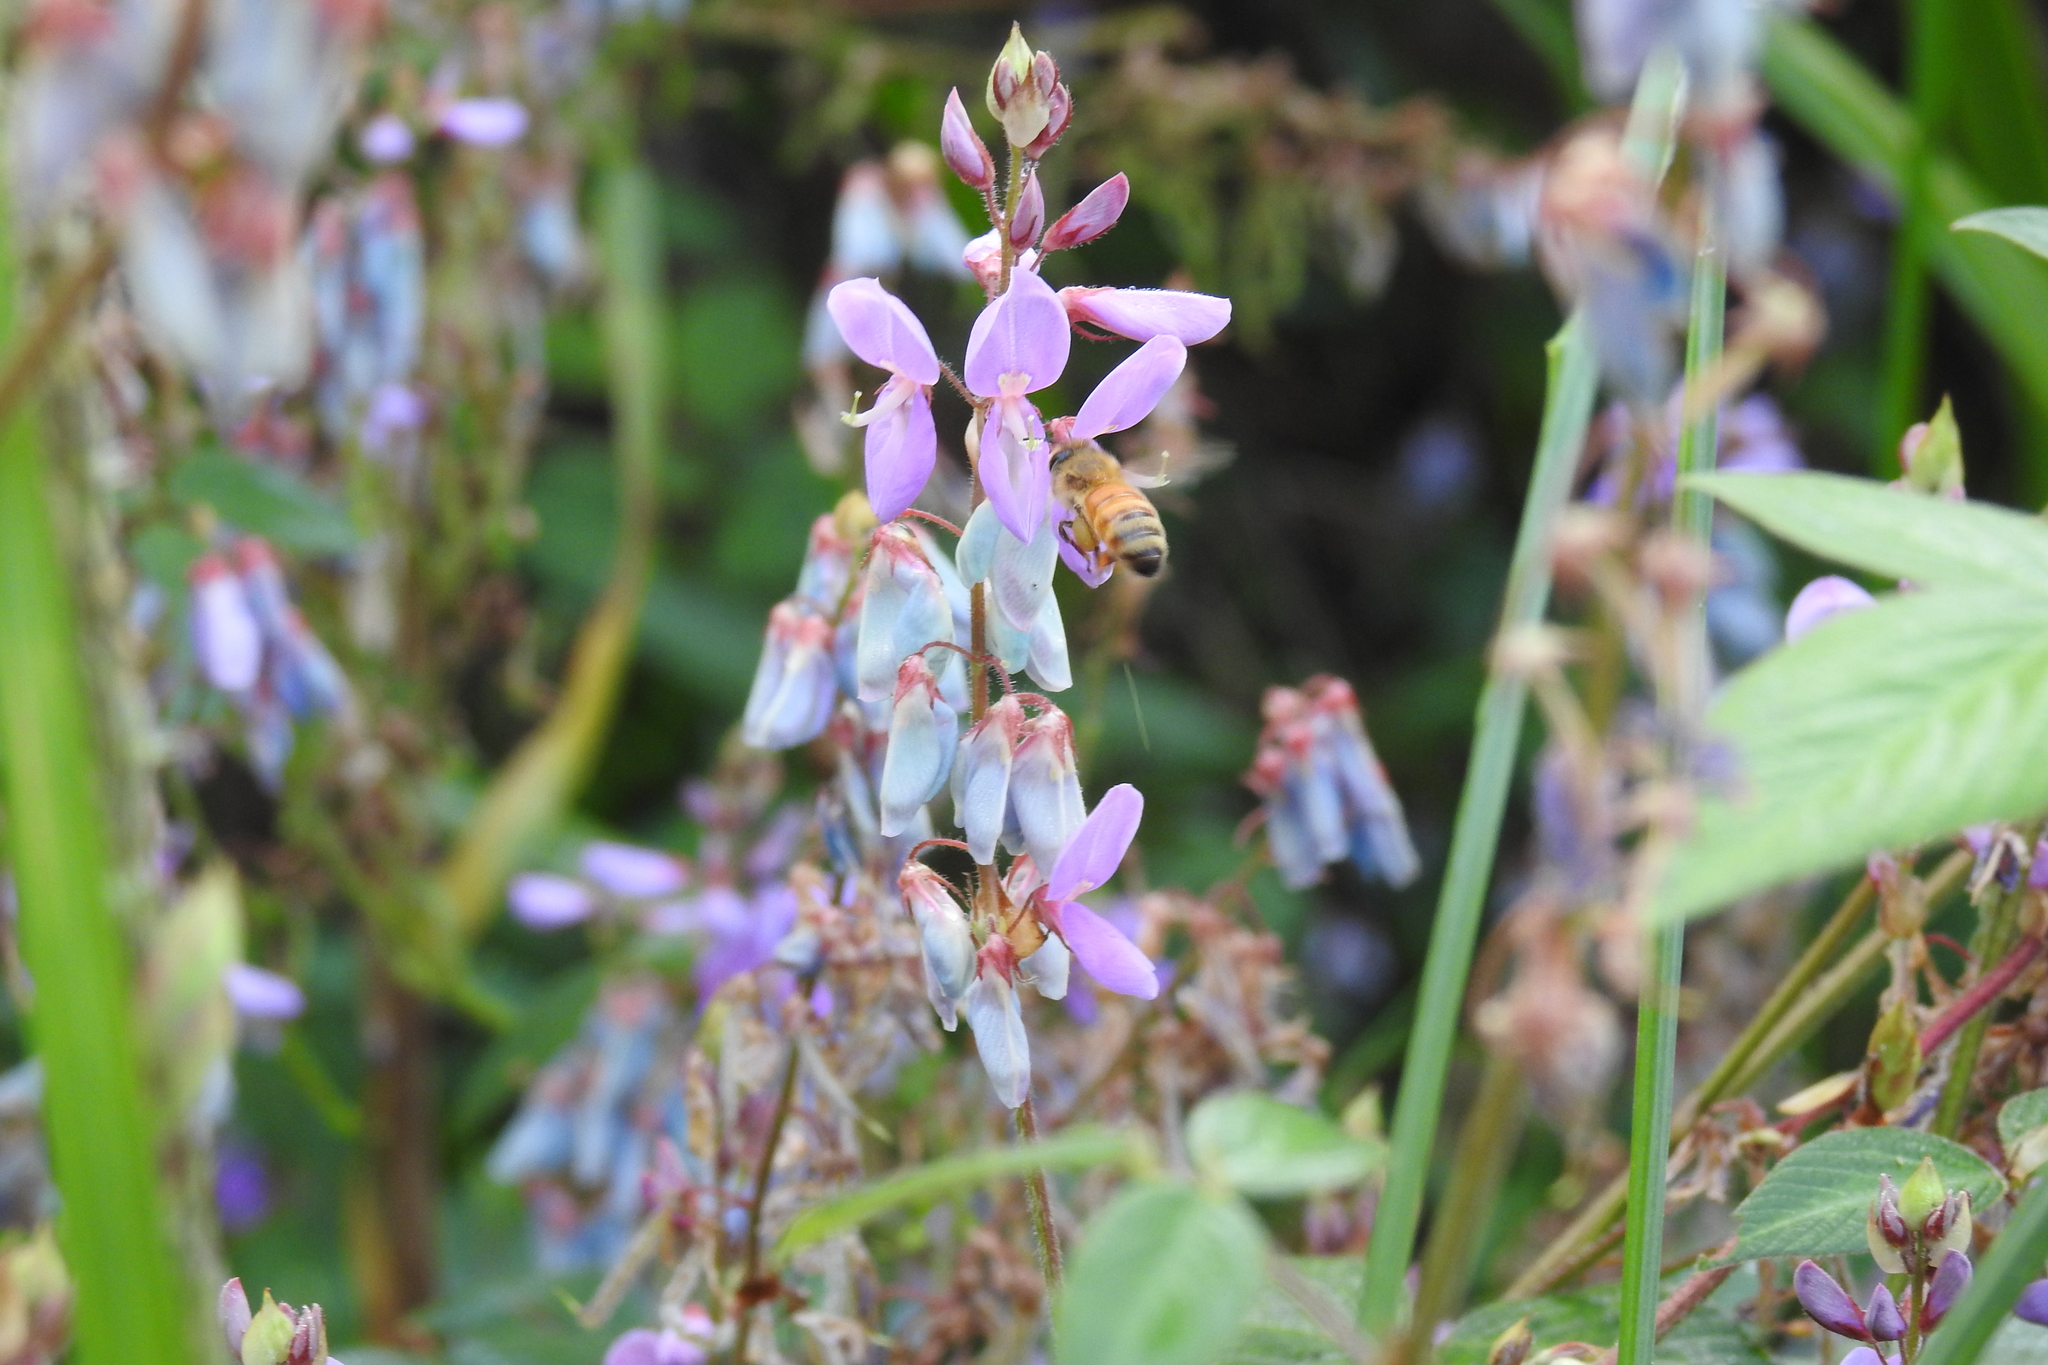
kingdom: Animalia
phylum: Arthropoda
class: Insecta
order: Hymenoptera
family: Apidae
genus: Apis
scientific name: Apis mellifera
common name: Honey bee
